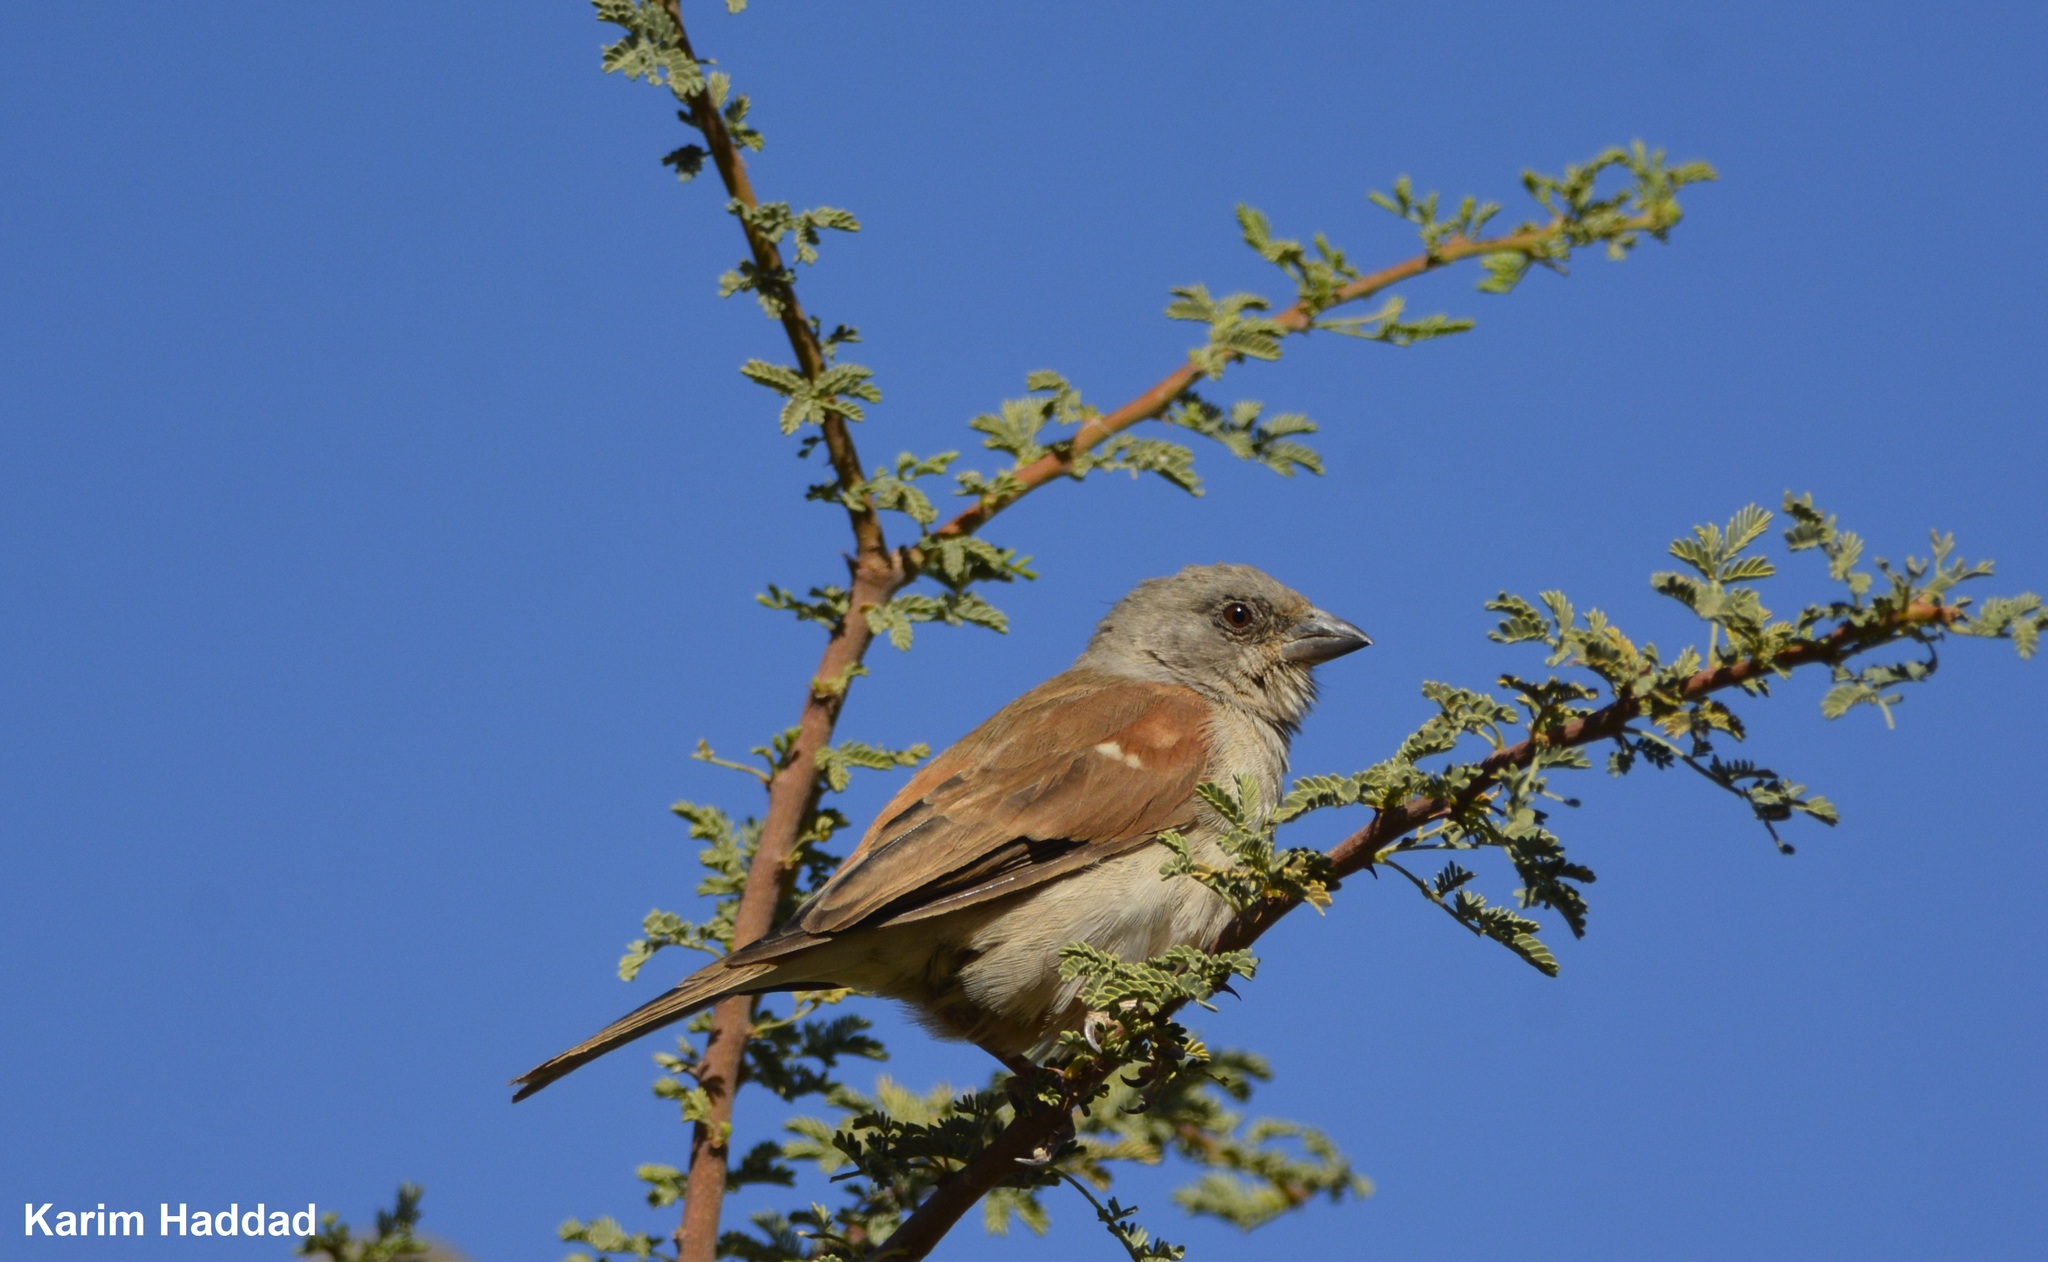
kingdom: Animalia
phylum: Chordata
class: Aves
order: Passeriformes
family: Passeridae
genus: Passer
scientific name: Passer griseus
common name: Northern grey-headed sparrow
